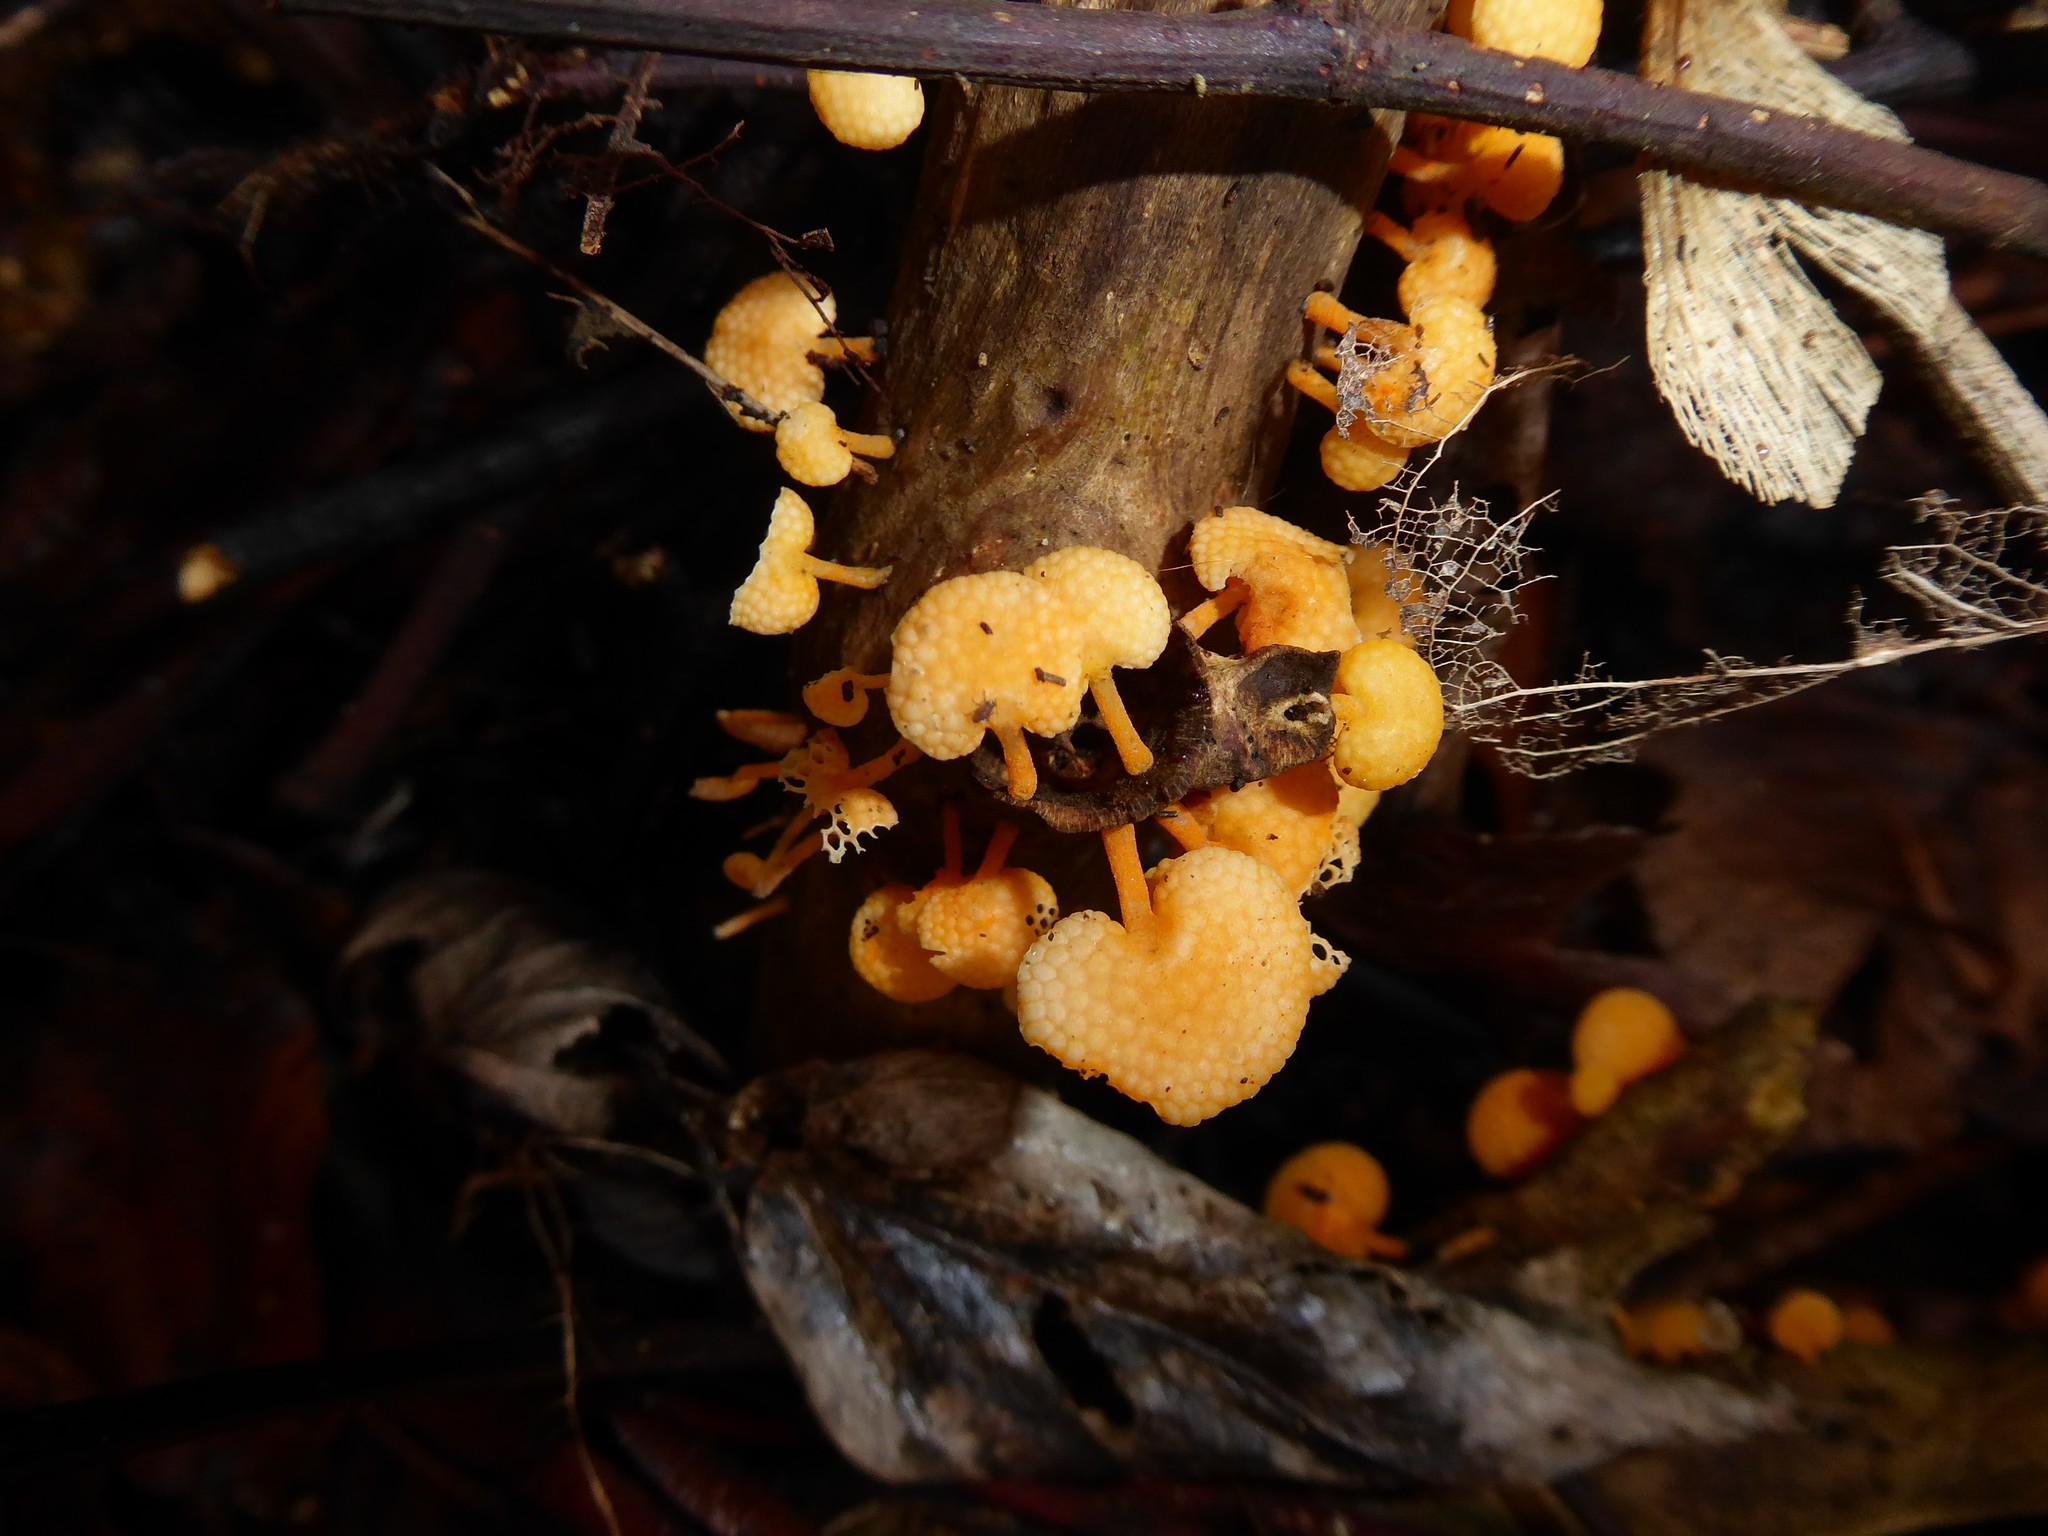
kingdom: Fungi
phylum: Basidiomycota
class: Agaricomycetes
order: Agaricales
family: Mycenaceae
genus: Favolaschia
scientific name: Favolaschia claudopus
